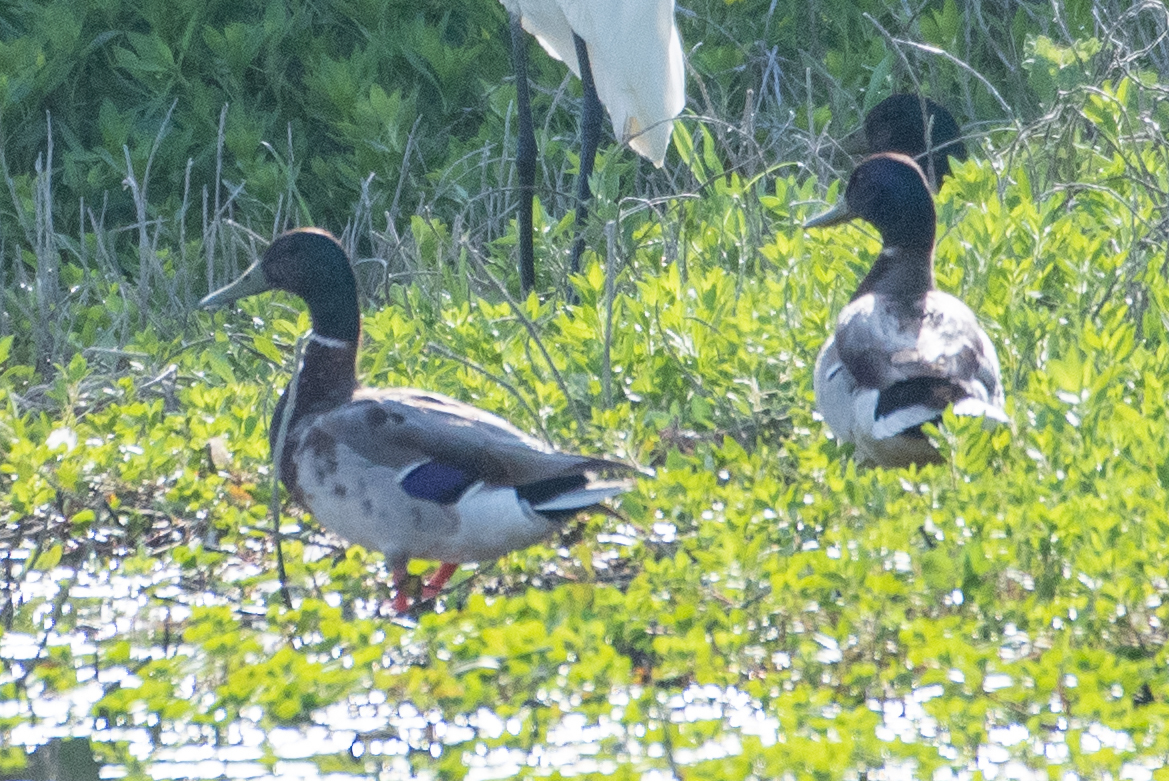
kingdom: Animalia
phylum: Chordata
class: Aves
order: Anseriformes
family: Anatidae
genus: Anas
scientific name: Anas platyrhynchos
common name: Mallard
